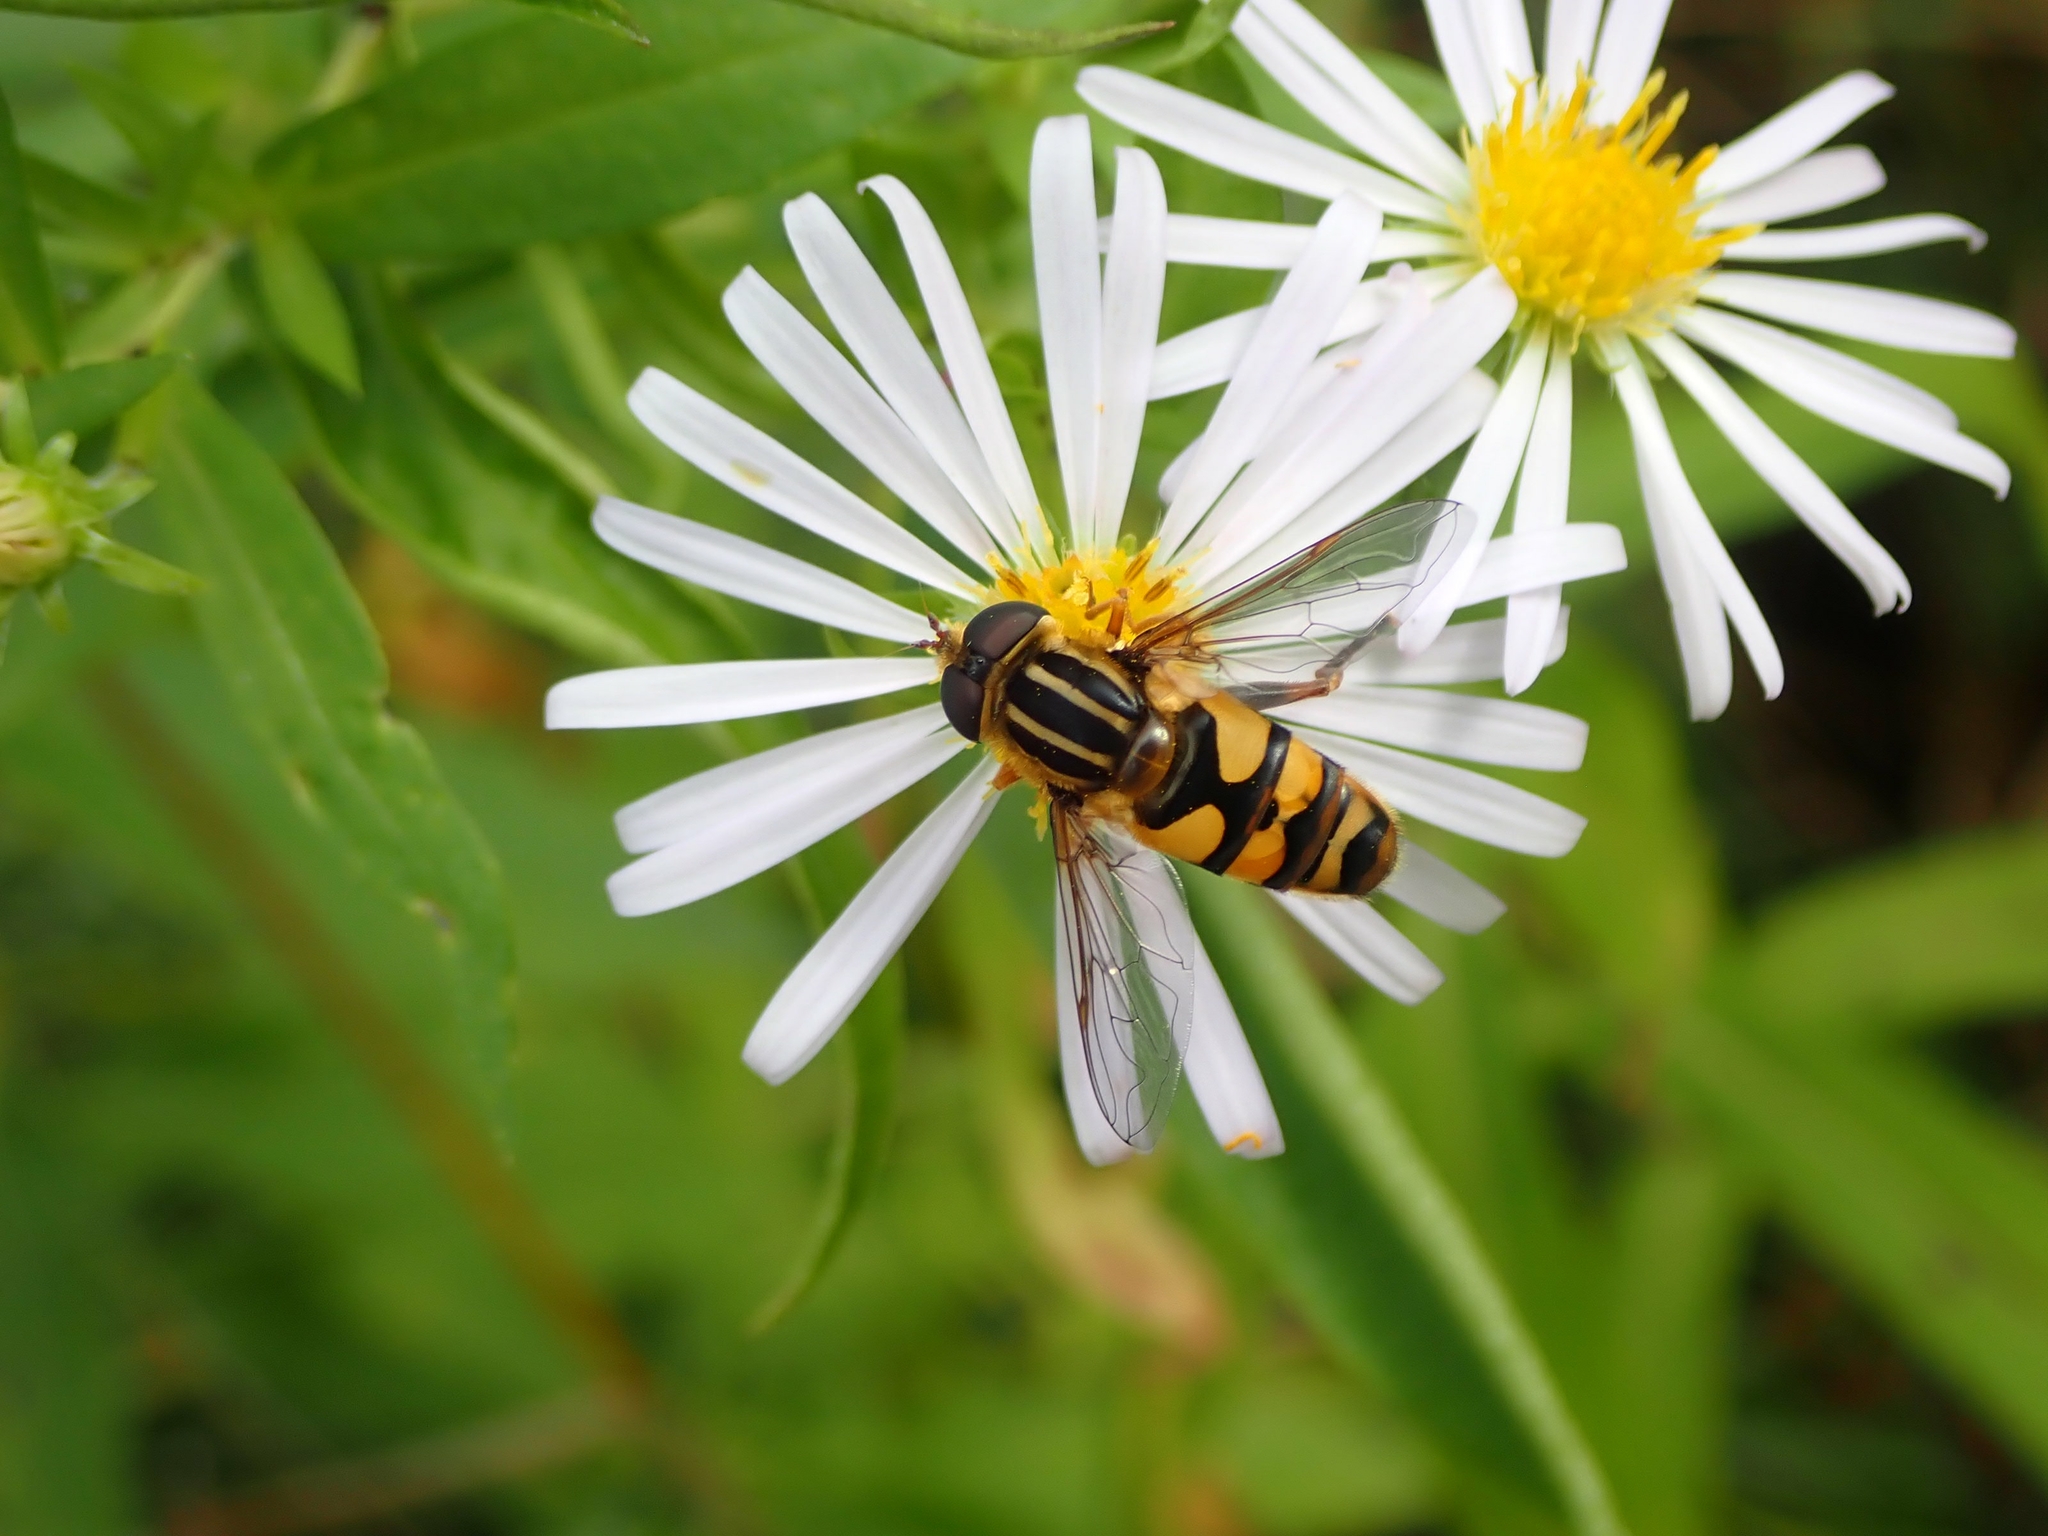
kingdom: Animalia
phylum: Arthropoda
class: Insecta
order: Diptera
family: Syrphidae
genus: Helophilus
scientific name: Helophilus fasciatus
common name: Narrow-headed marsh fly
